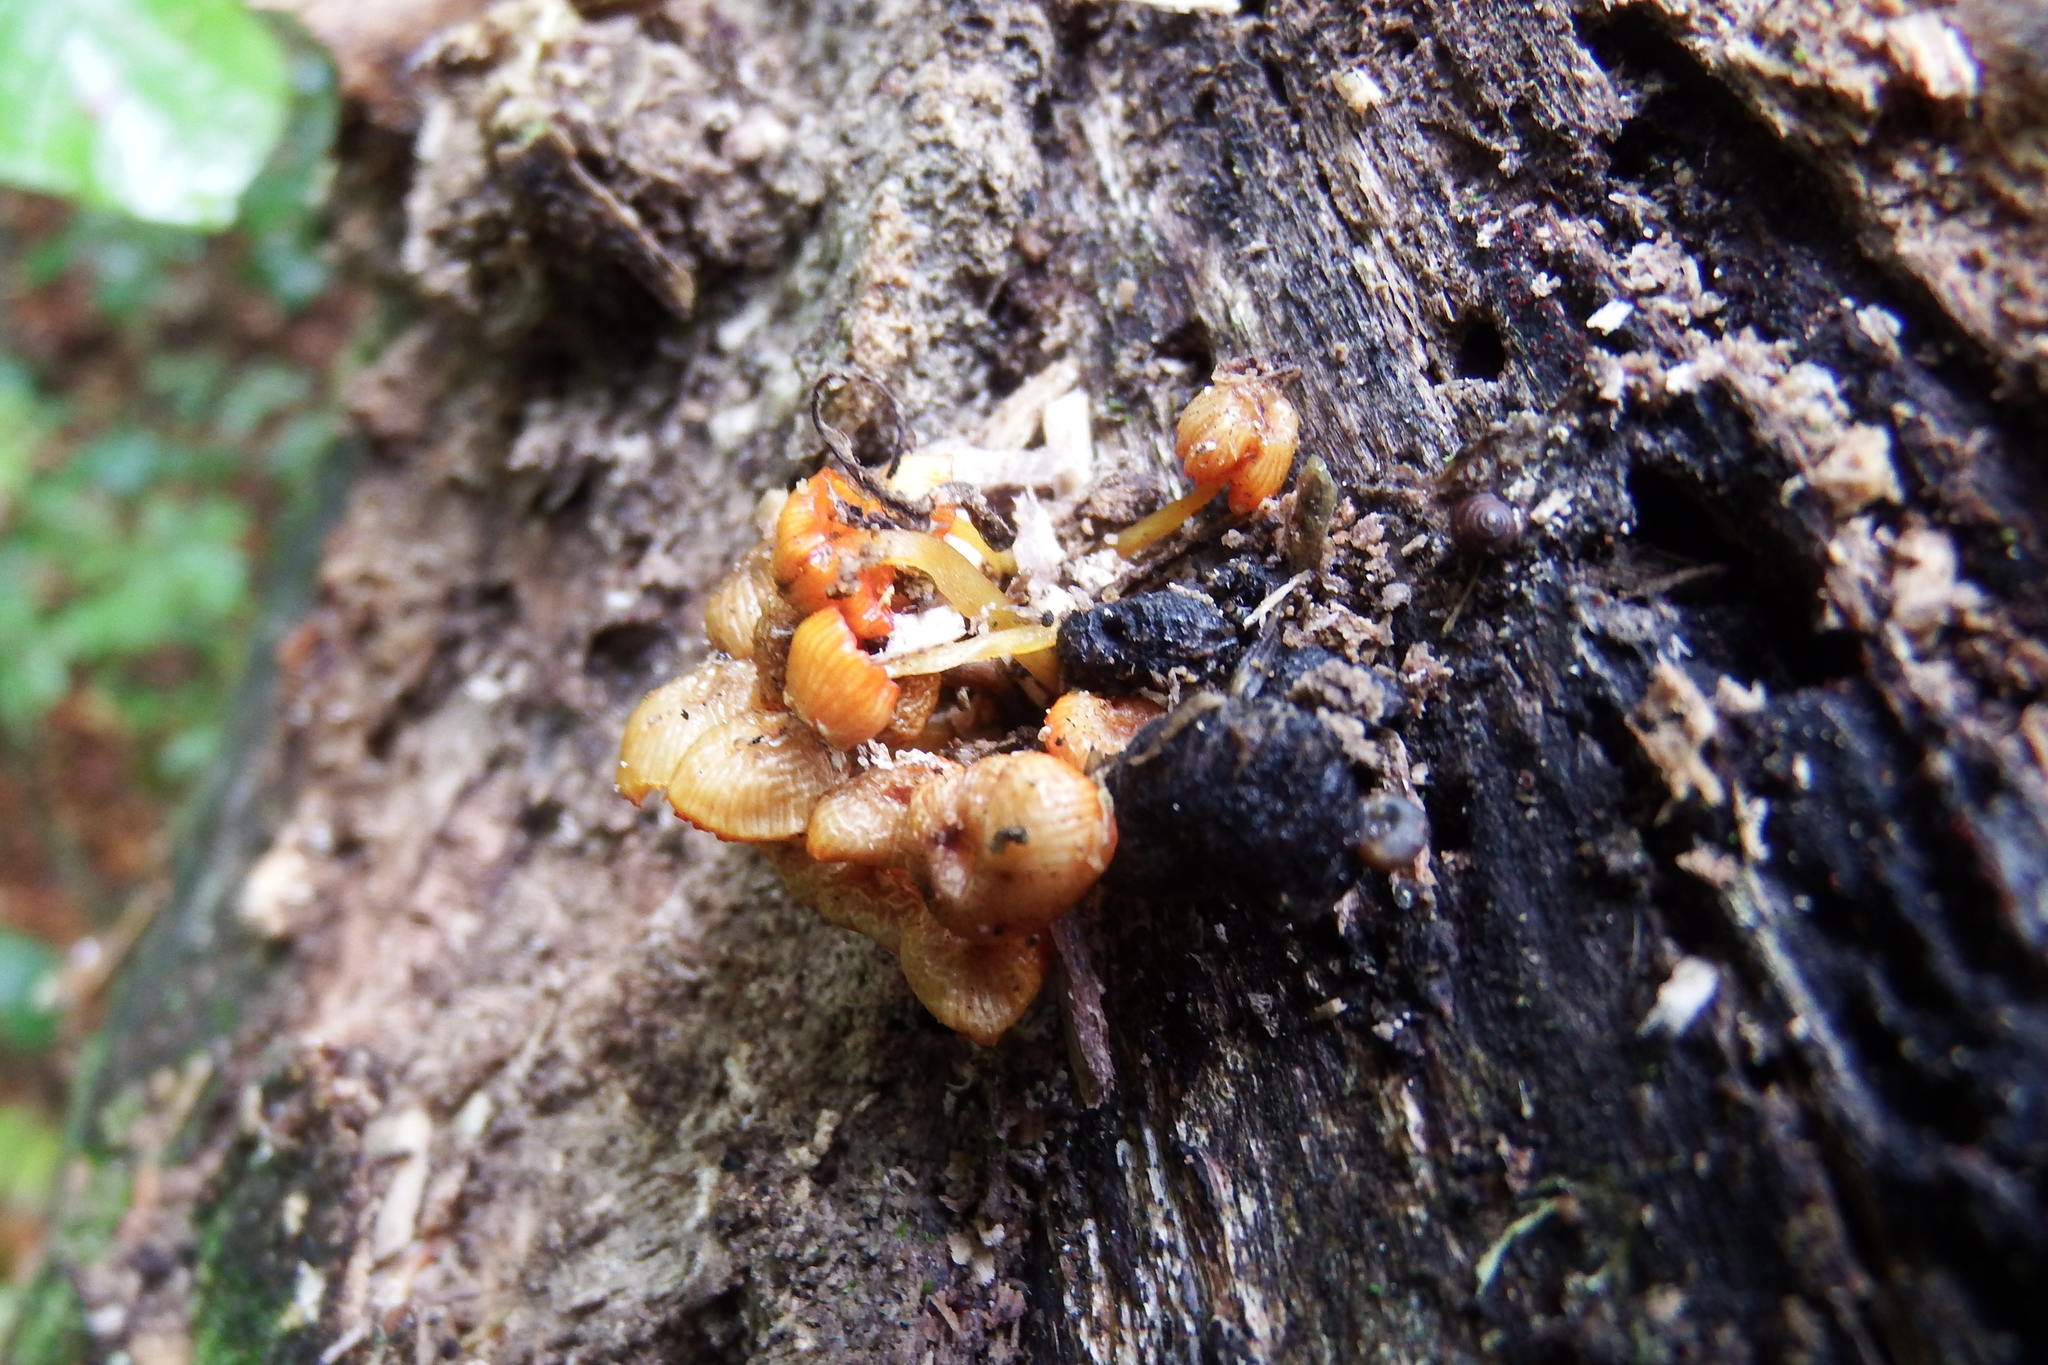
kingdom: Fungi
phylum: Basidiomycota
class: Agaricomycetes
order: Agaricales
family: Mycenaceae
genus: Mycena
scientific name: Mycena leaiana
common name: Orange mycena
